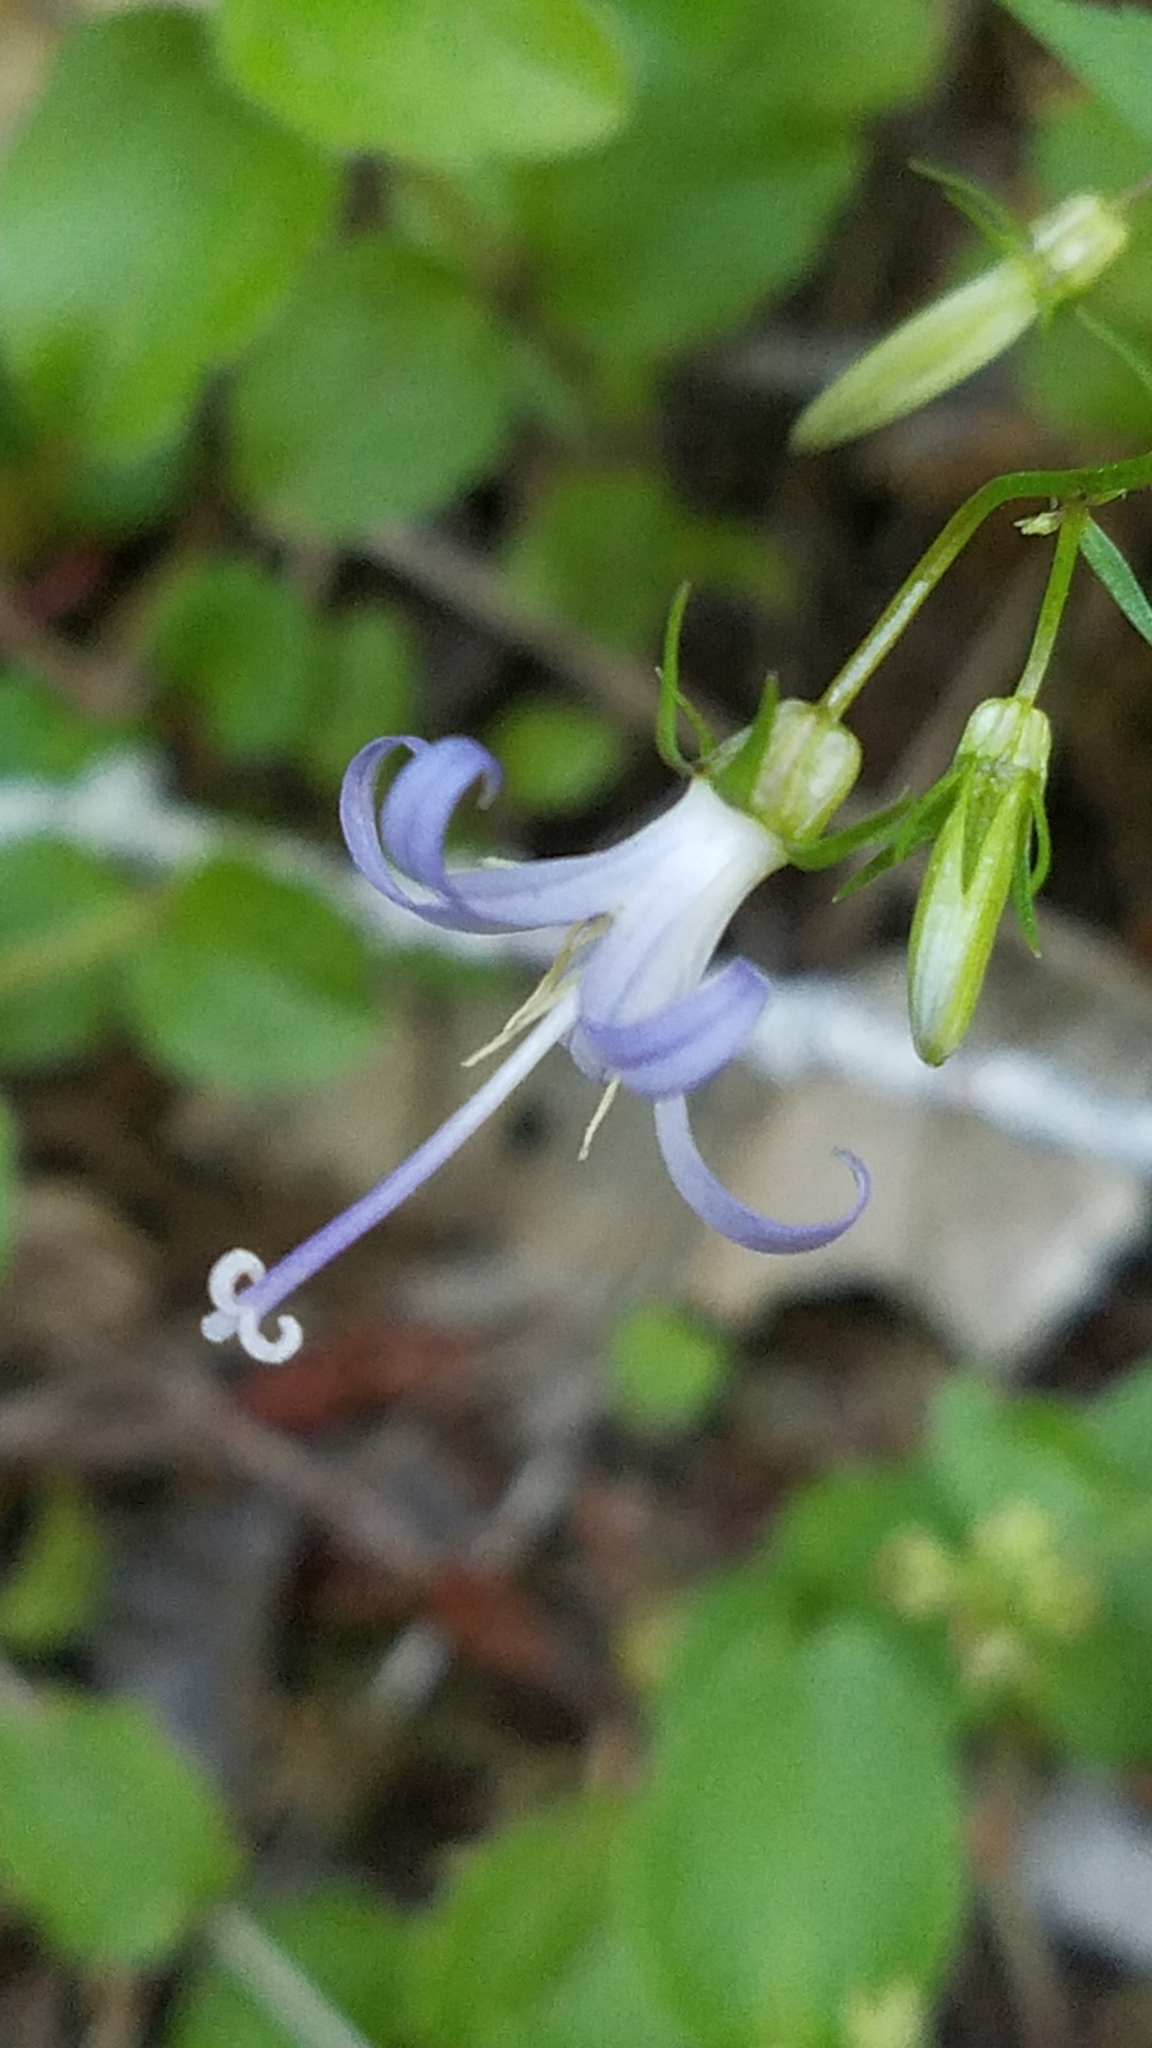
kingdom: Plantae
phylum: Tracheophyta
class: Magnoliopsida
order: Asterales
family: Campanulaceae
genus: Smithiastrum
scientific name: Smithiastrum prenanthoides
